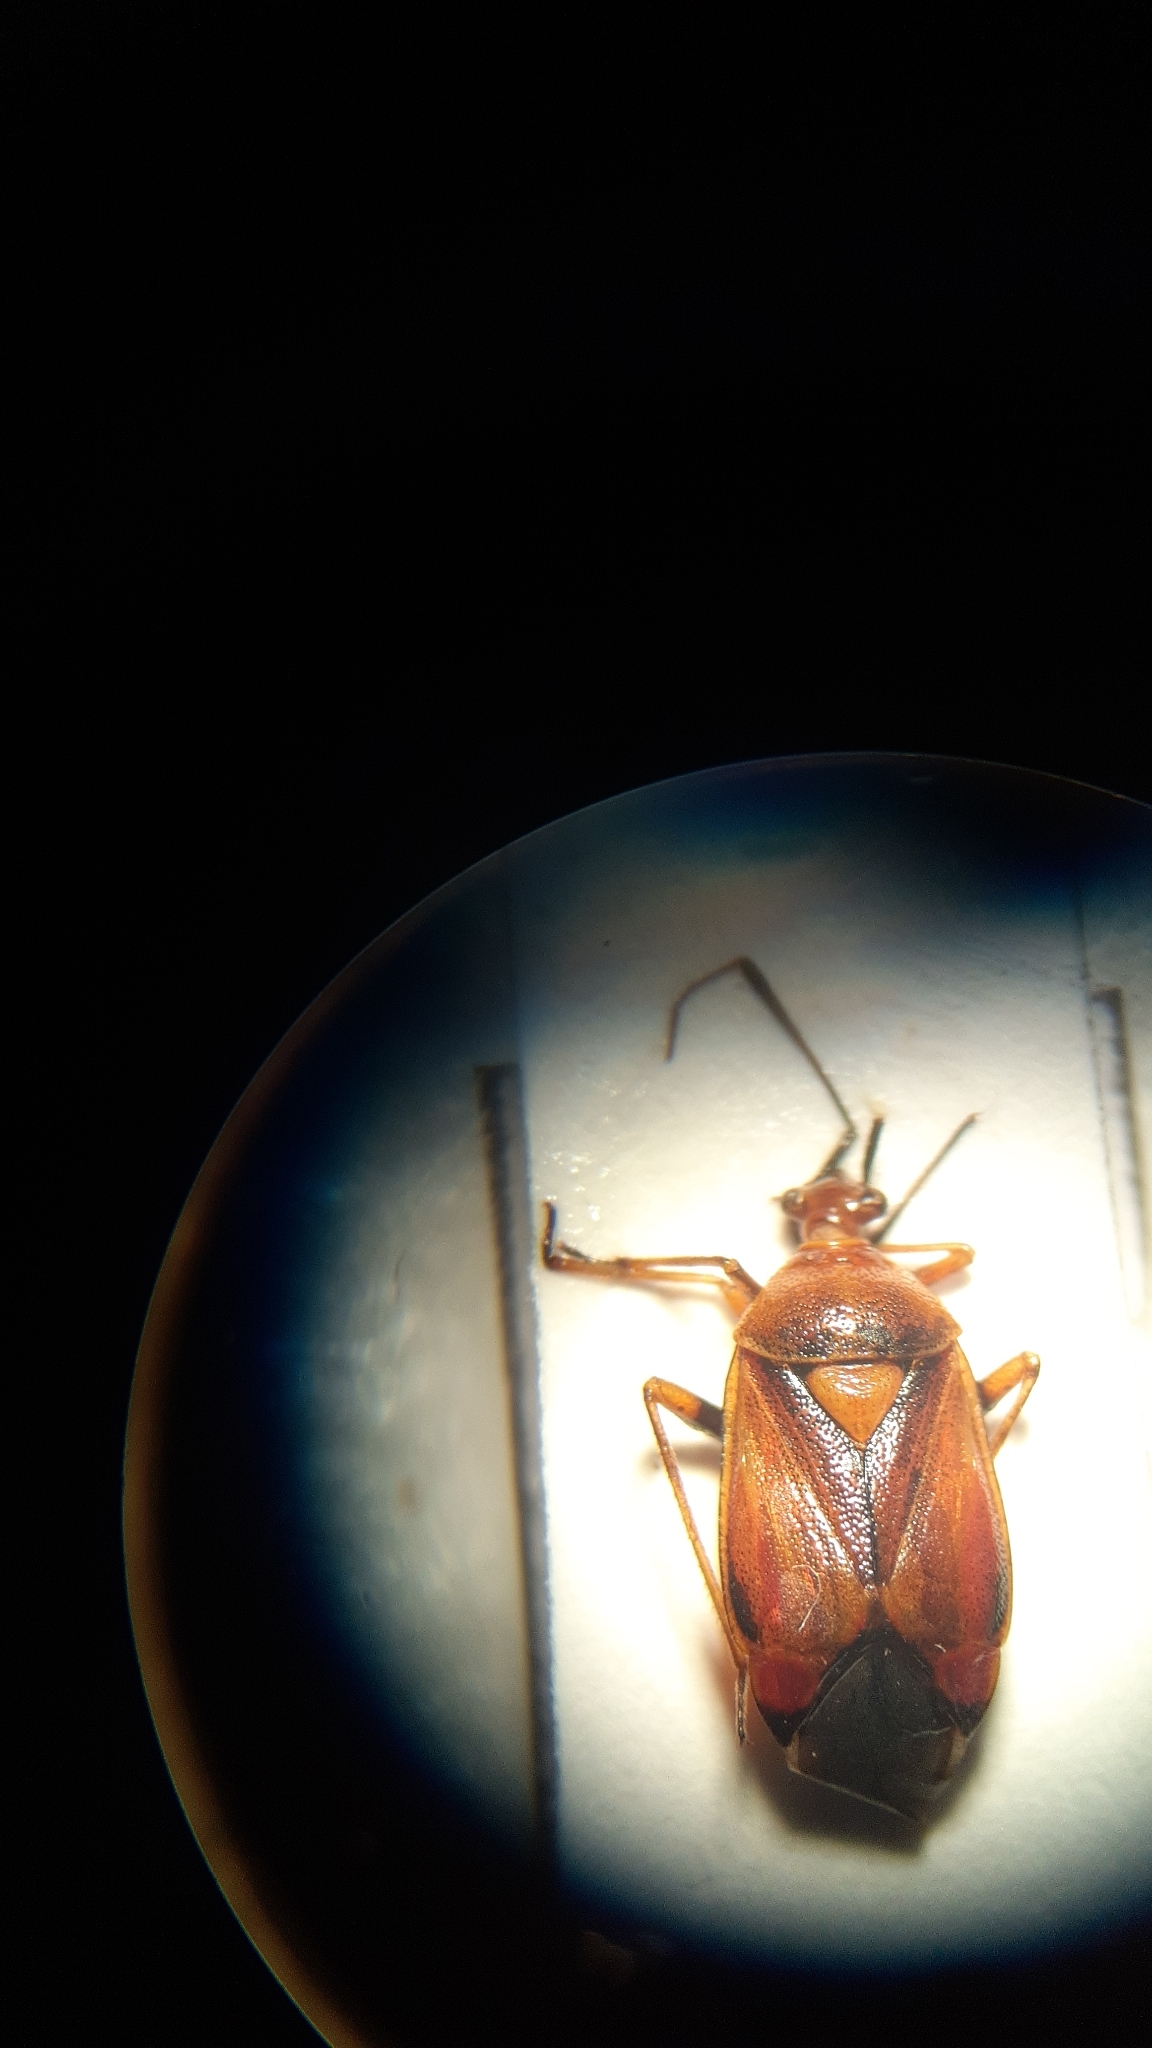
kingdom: Animalia
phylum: Arthropoda
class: Insecta
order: Hemiptera
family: Miridae
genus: Deraeocoris
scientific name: Deraeocoris ruber
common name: Plant bug
